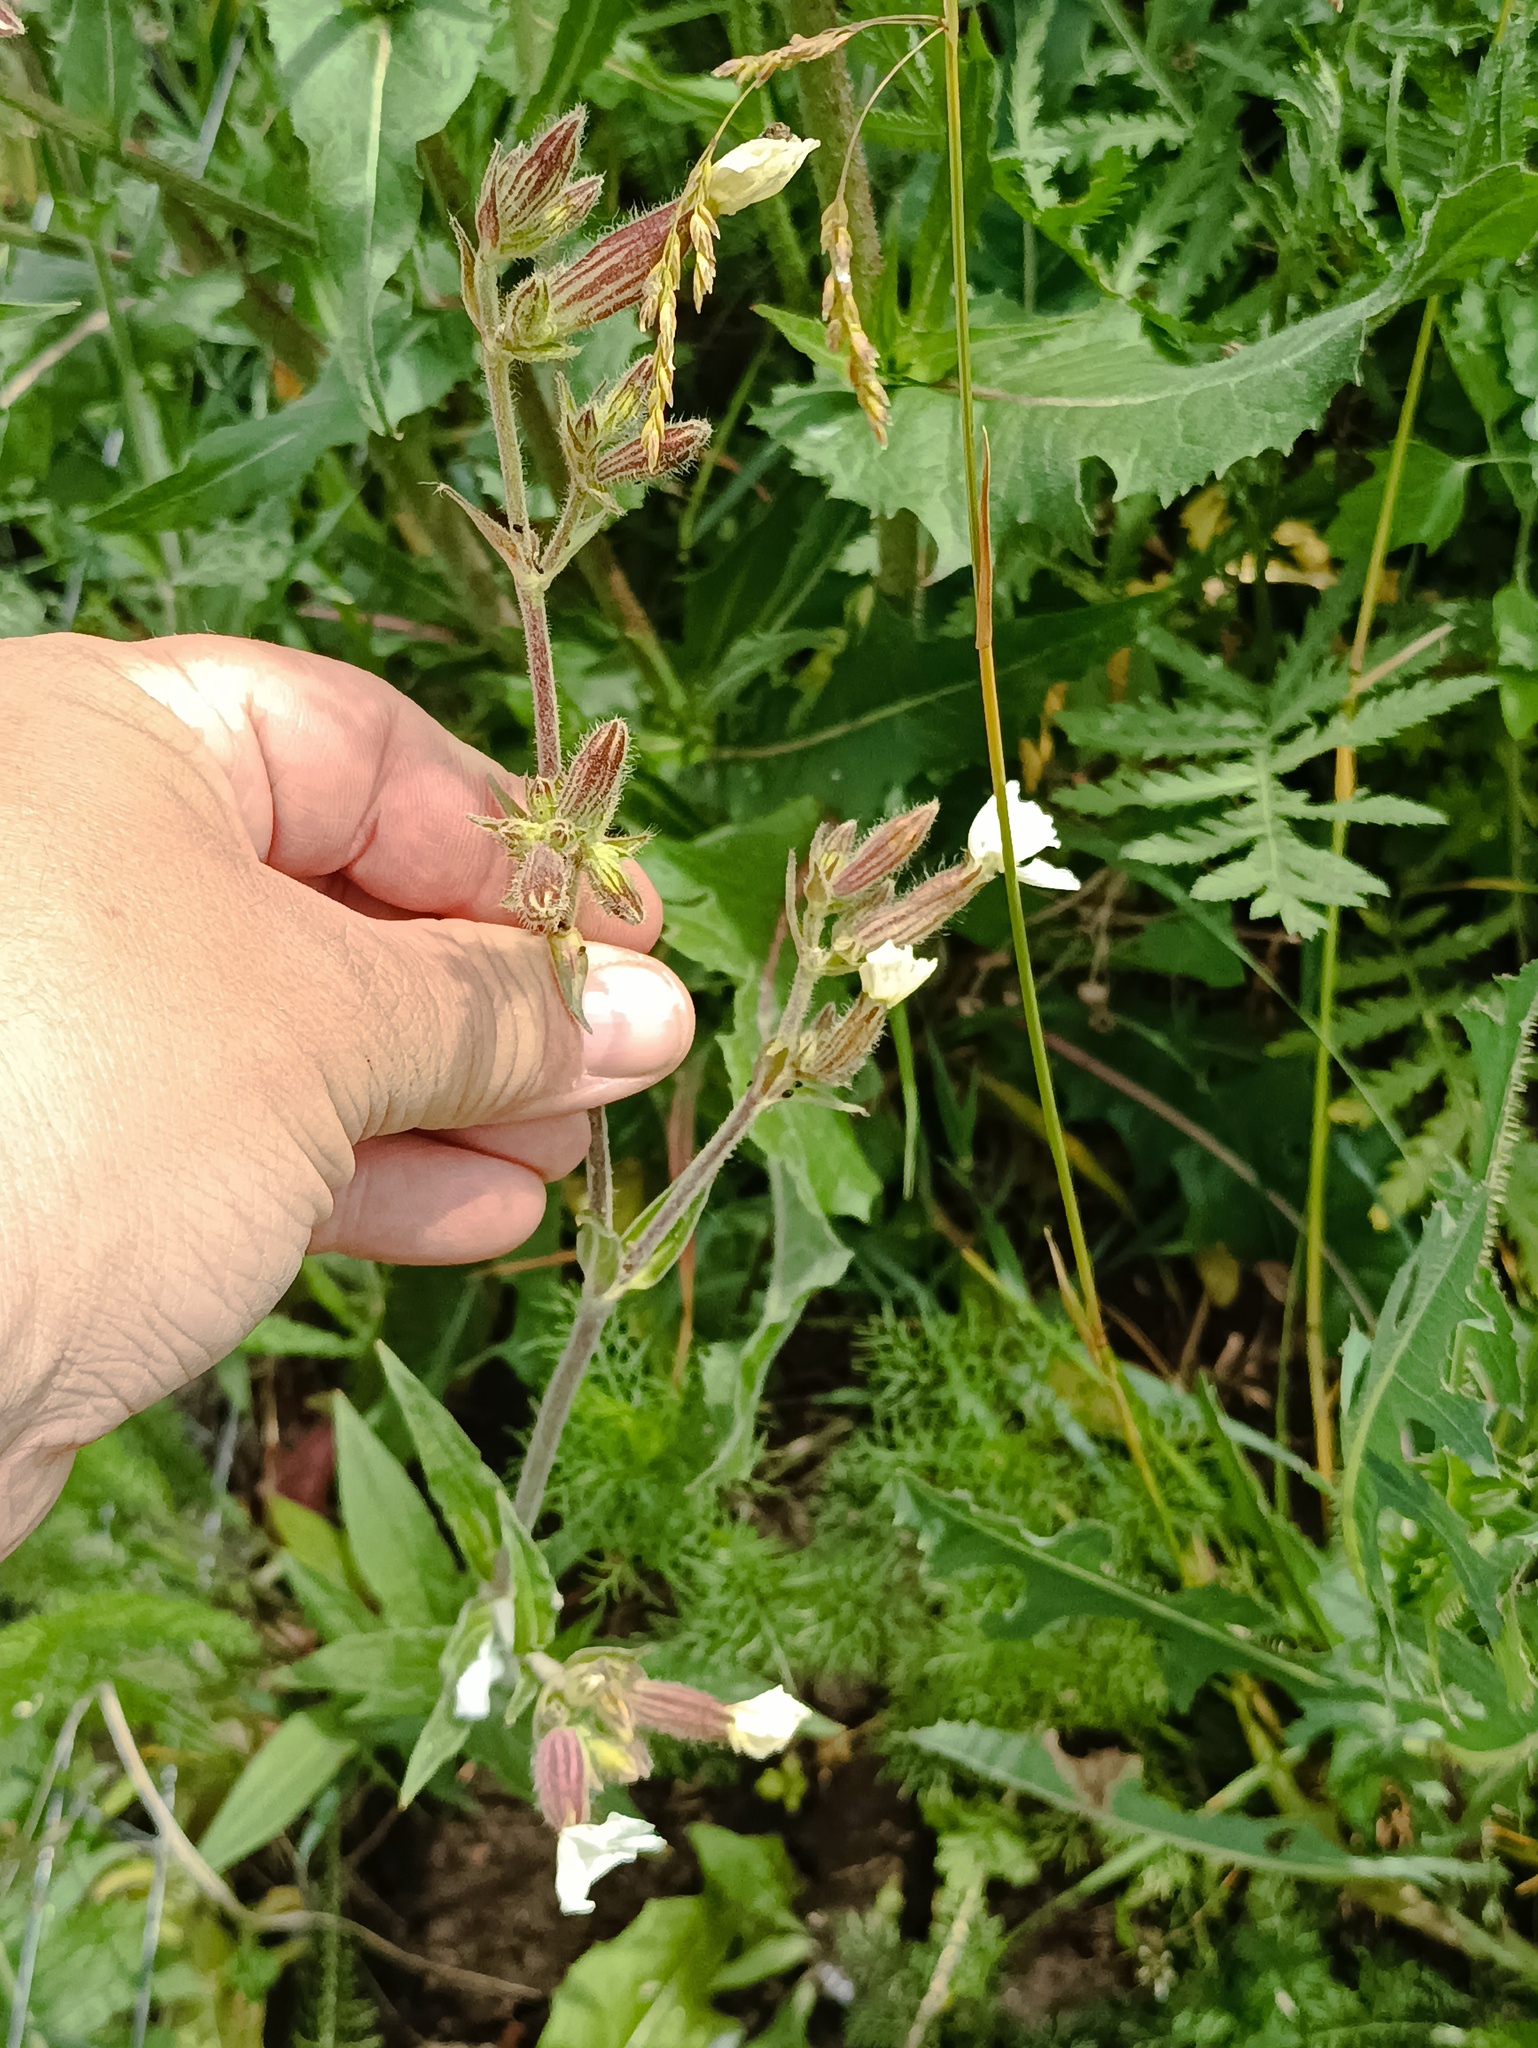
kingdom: Plantae
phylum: Tracheophyta
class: Magnoliopsida
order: Caryophyllales
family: Caryophyllaceae
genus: Silene
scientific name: Silene latifolia
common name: White campion
